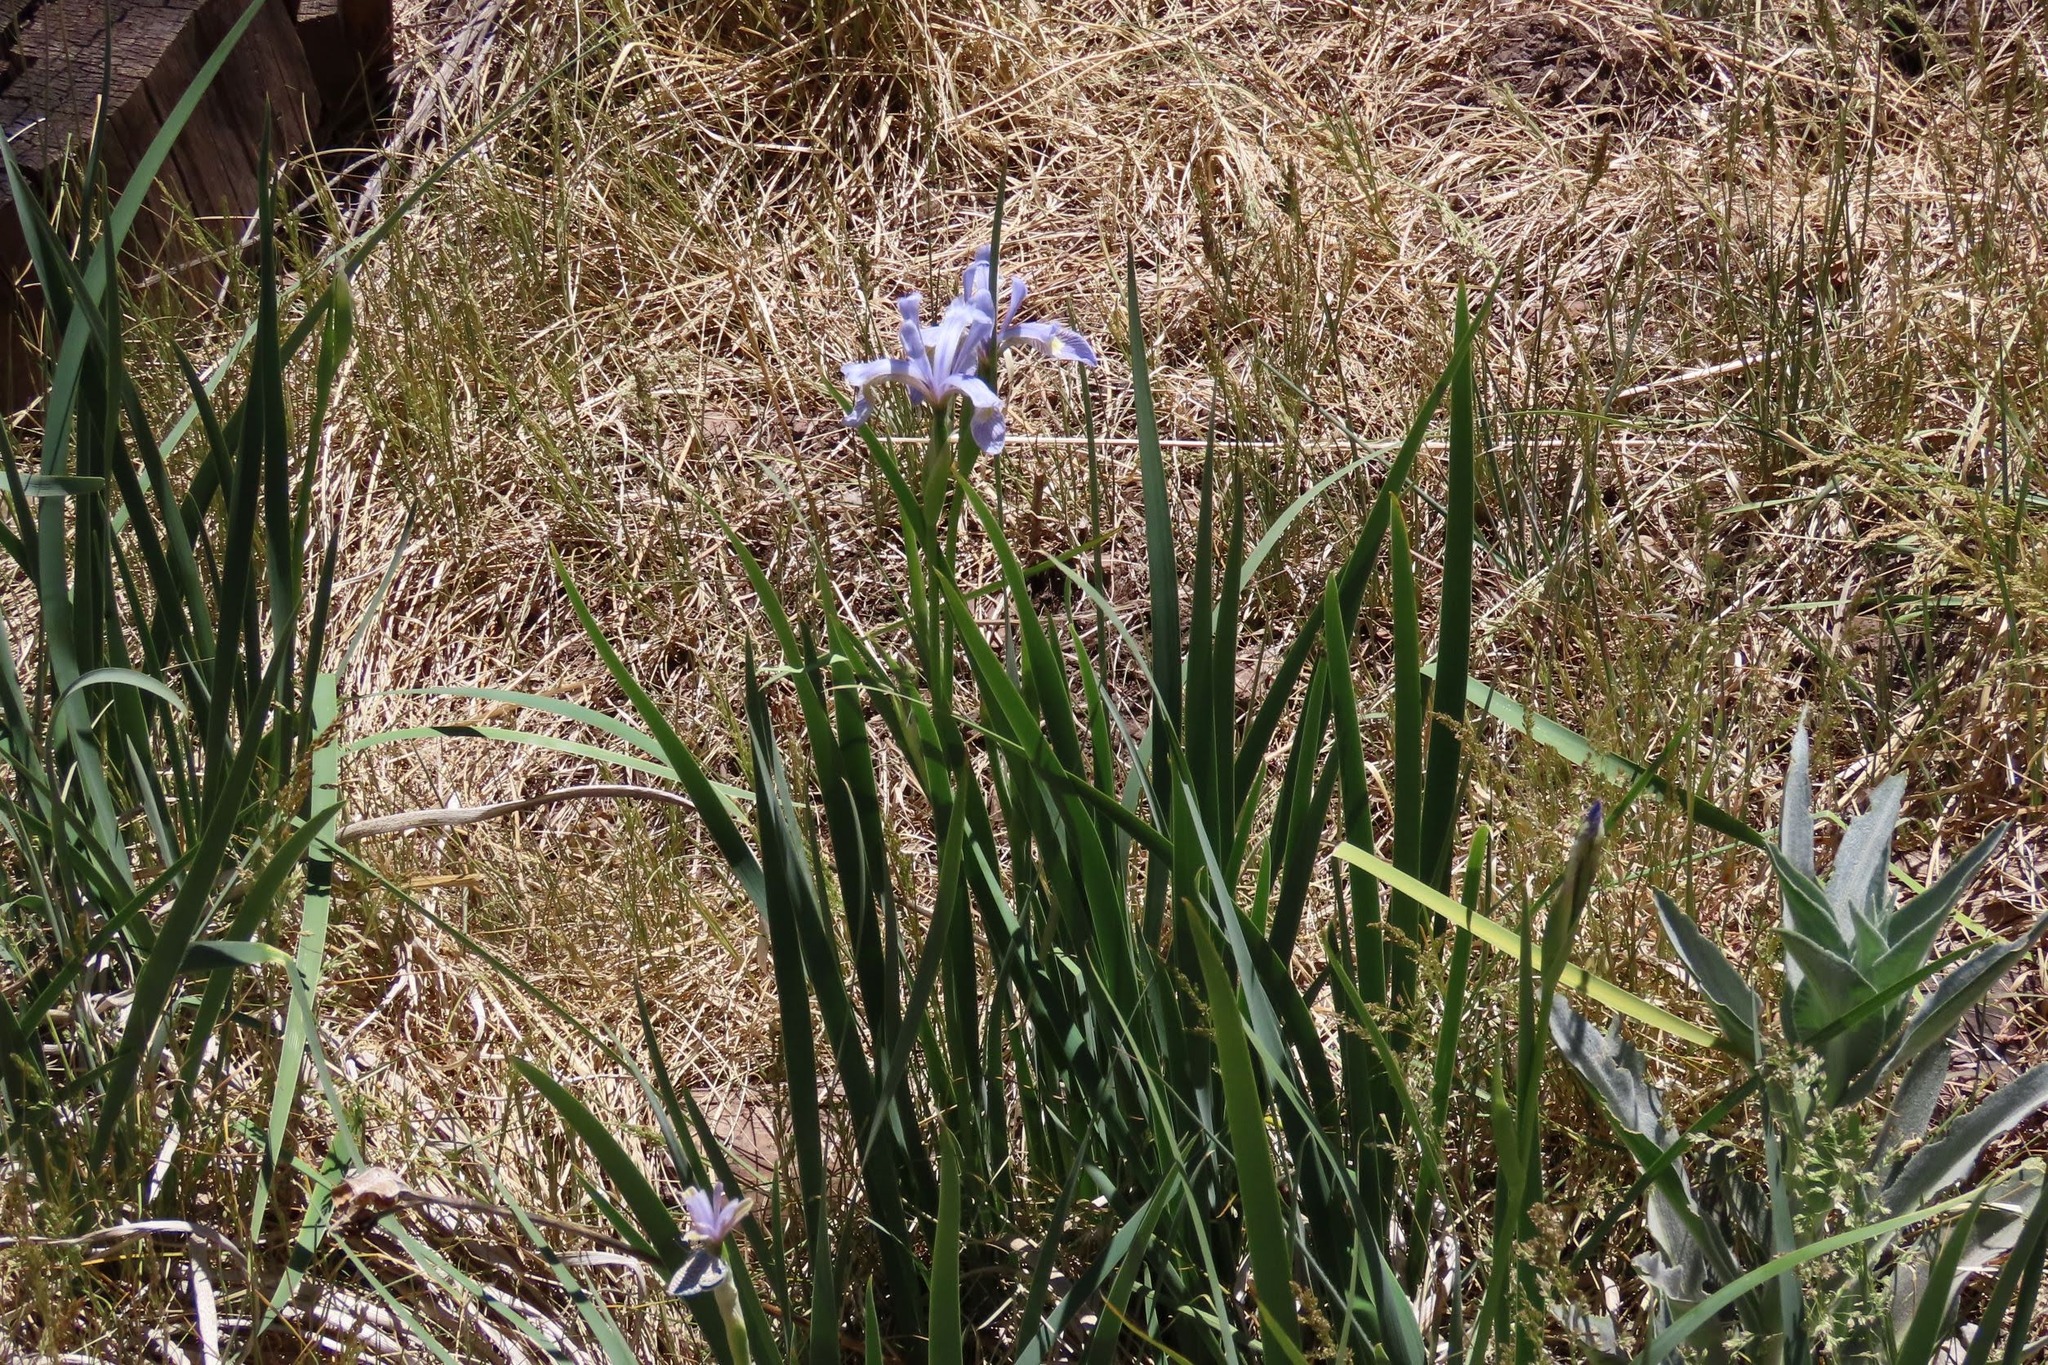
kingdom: Plantae
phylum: Tracheophyta
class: Liliopsida
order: Asparagales
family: Iridaceae
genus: Iris
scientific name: Iris missouriensis
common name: Rocky mountain iris
